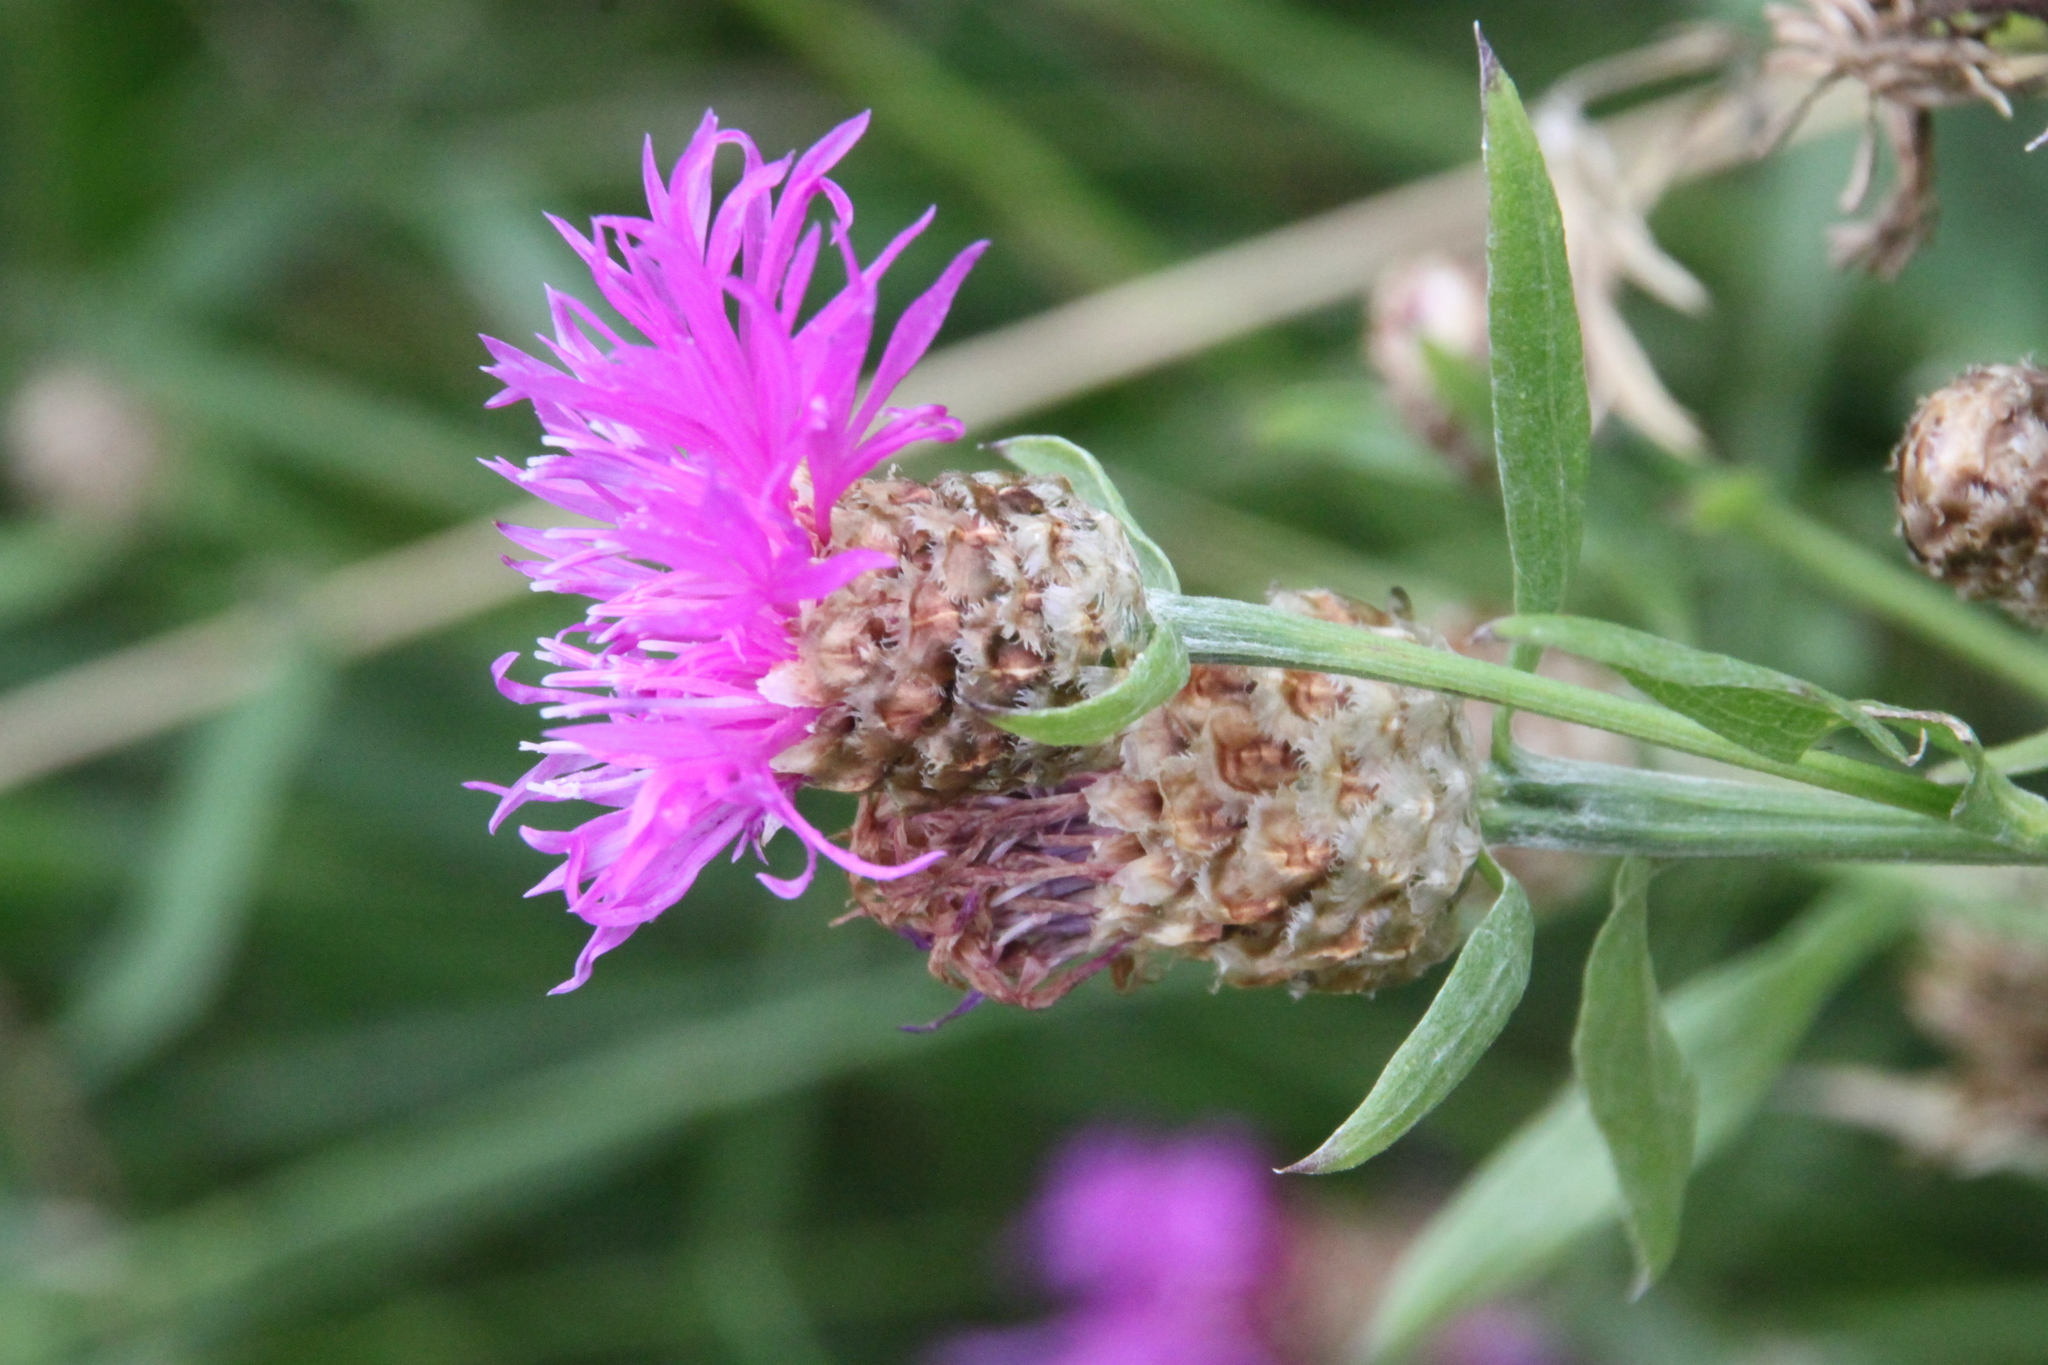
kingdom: Plantae
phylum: Tracheophyta
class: Magnoliopsida
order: Asterales
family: Asteraceae
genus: Centaurea
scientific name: Centaurea jacea
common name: Brown knapweed
